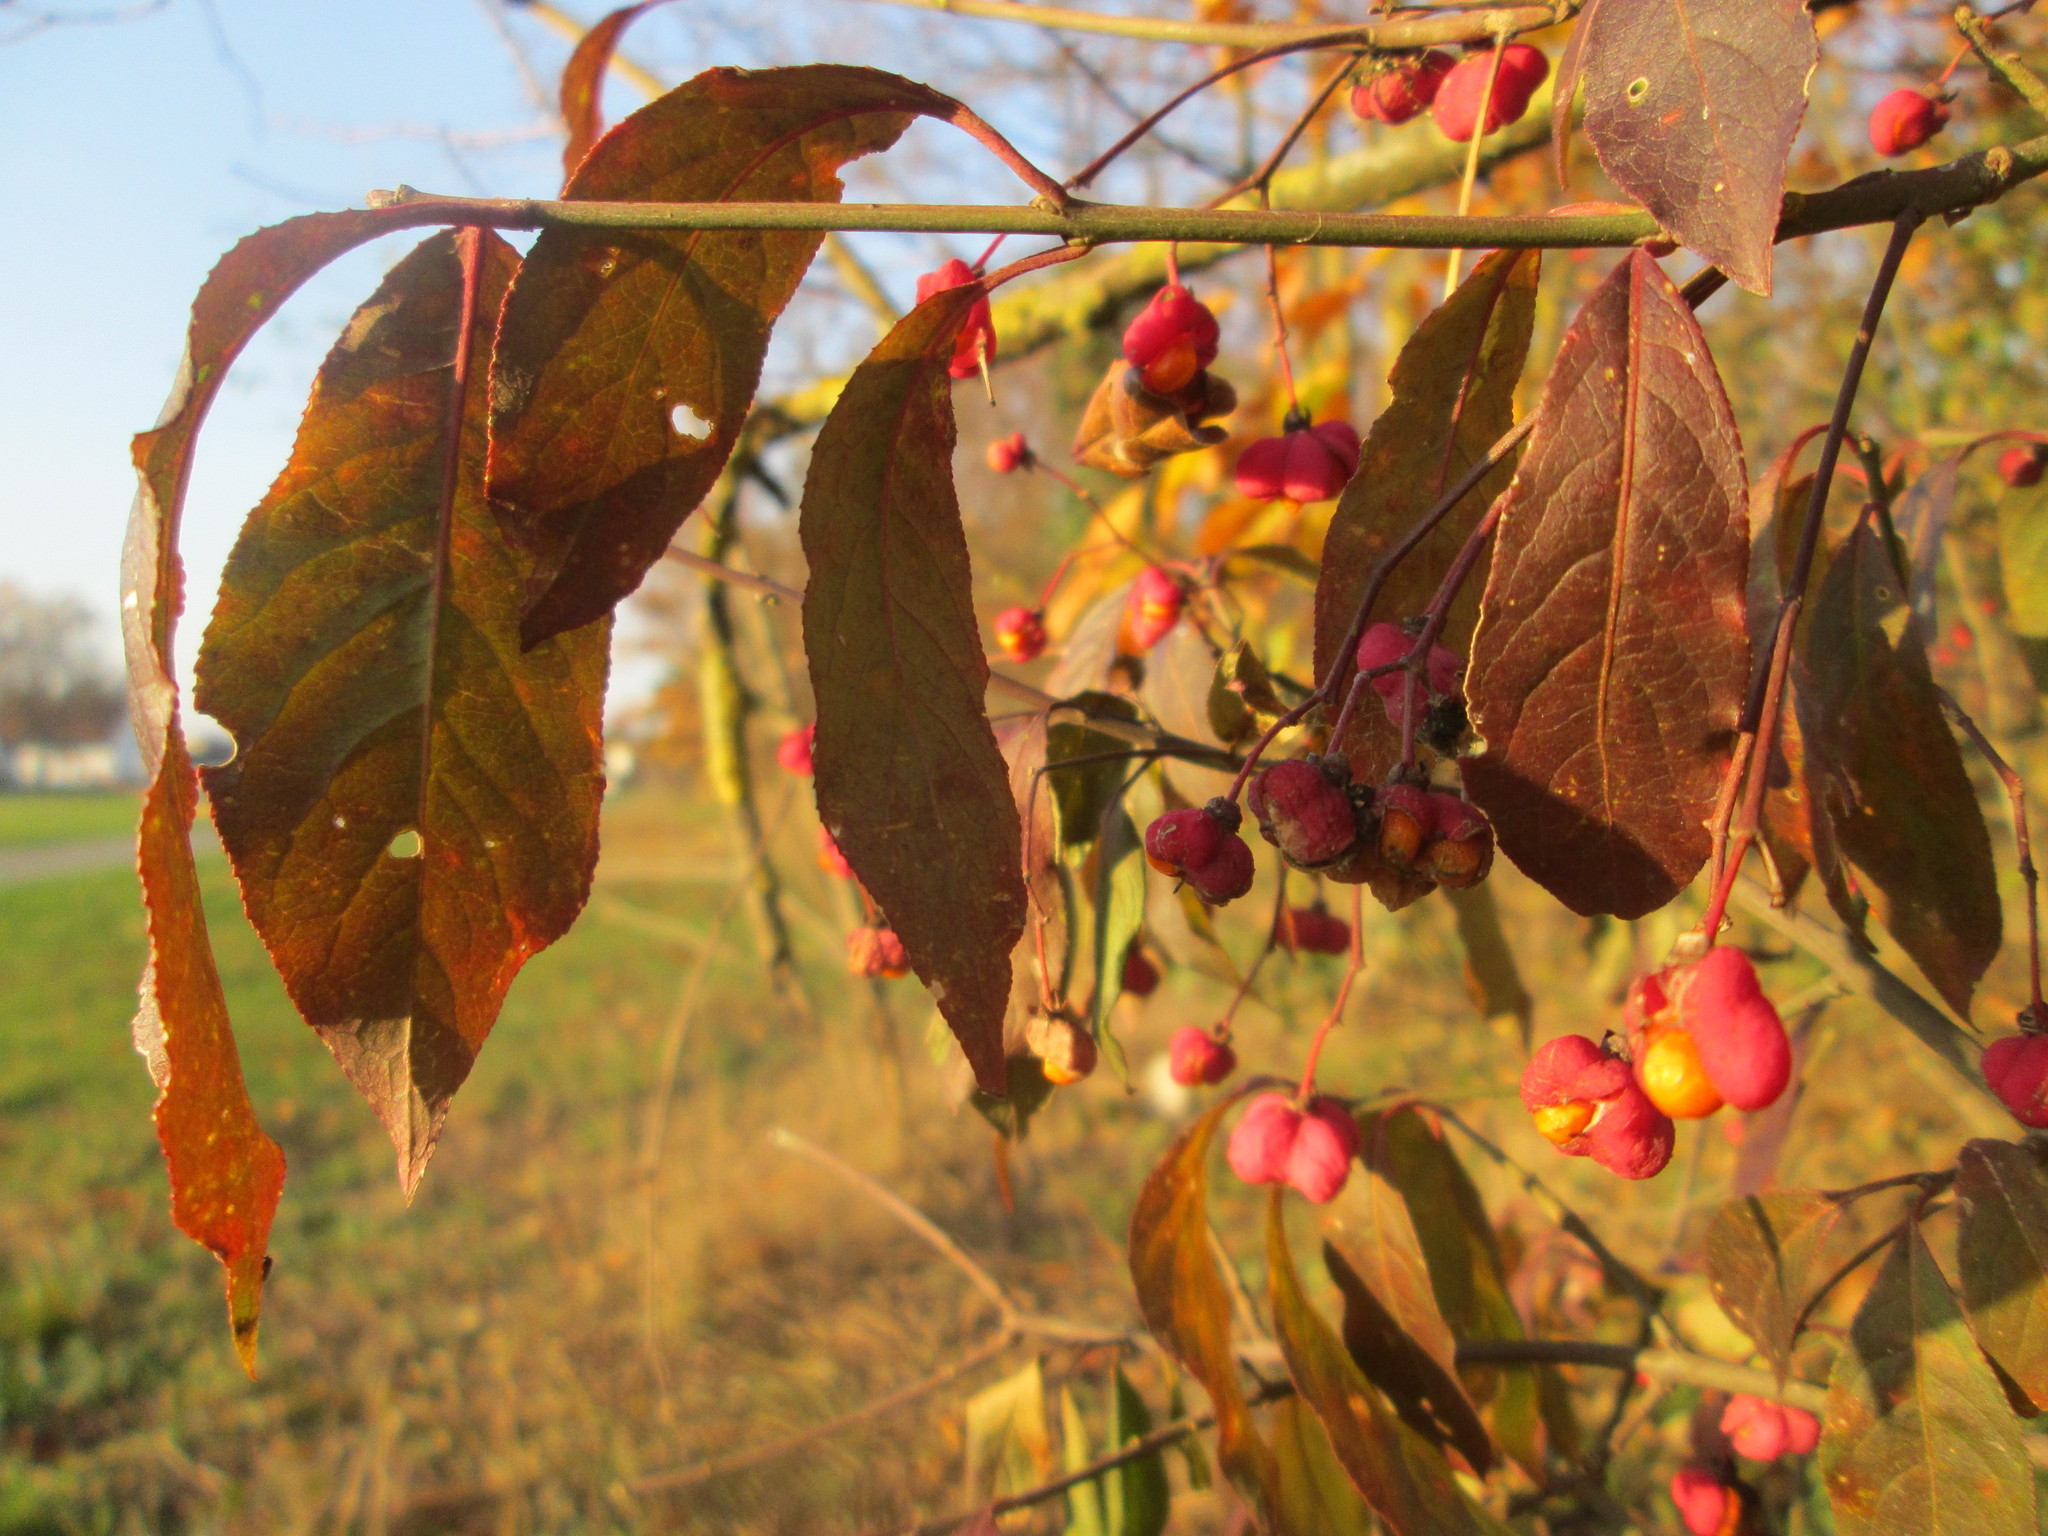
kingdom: Plantae
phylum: Tracheophyta
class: Magnoliopsida
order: Celastrales
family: Celastraceae
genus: Euonymus
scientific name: Euonymus europaeus
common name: Spindle
